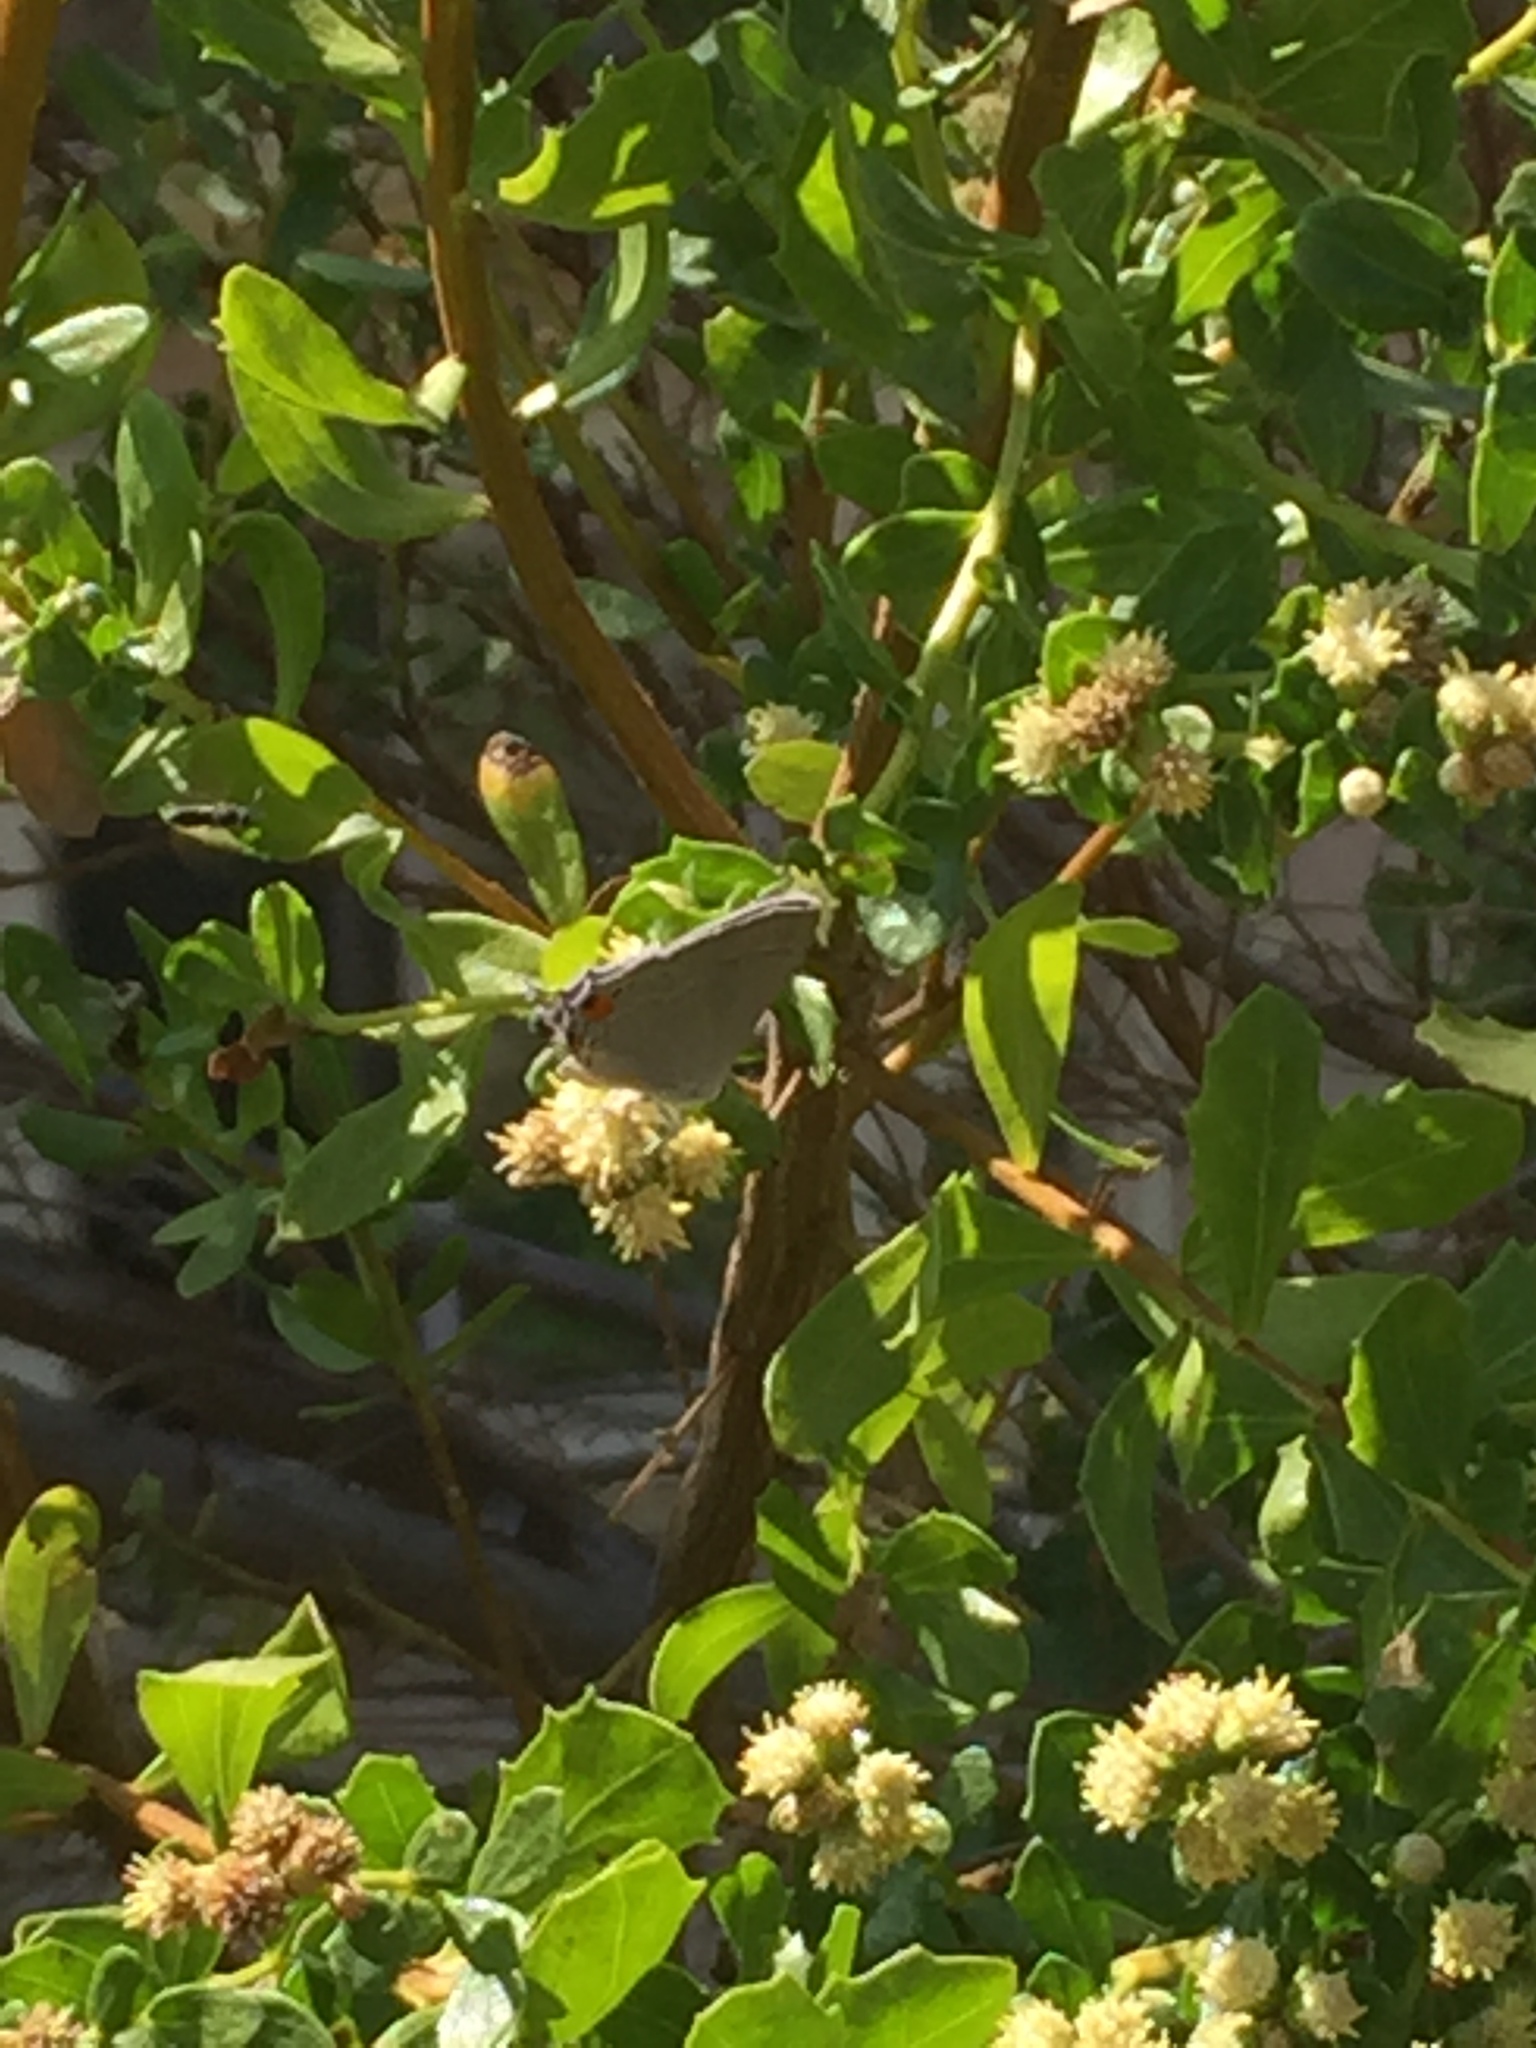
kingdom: Animalia
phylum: Arthropoda
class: Insecta
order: Lepidoptera
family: Lycaenidae
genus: Strymon
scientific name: Strymon melinus
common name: Gray hairstreak
